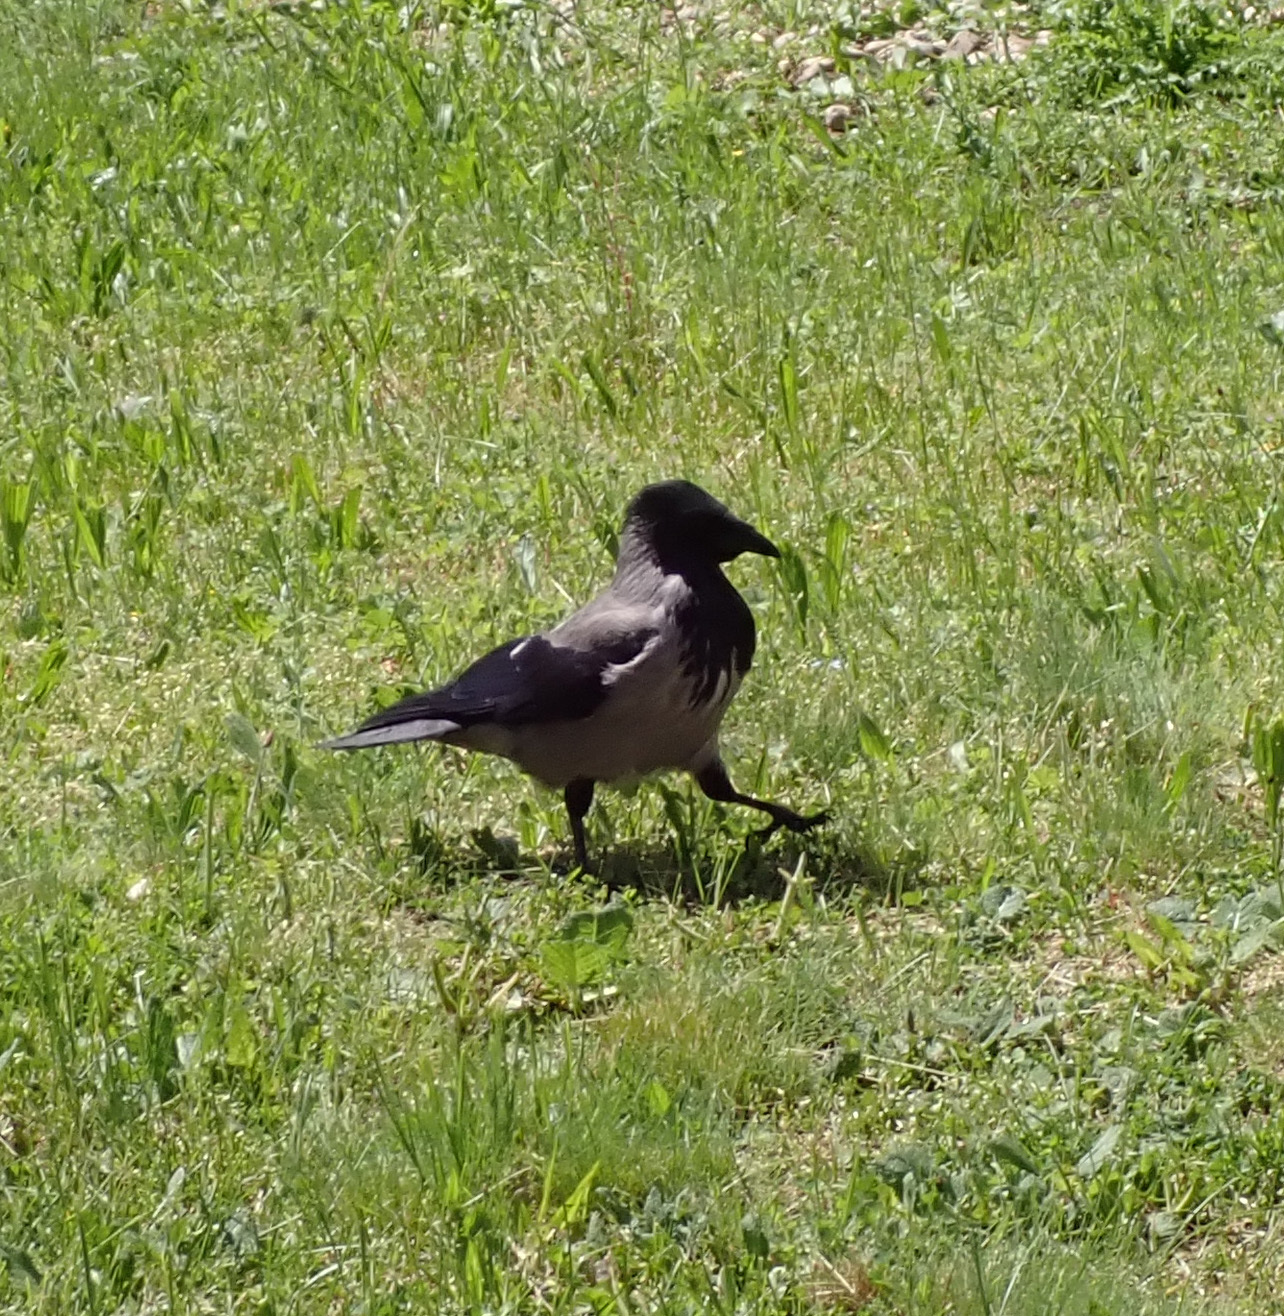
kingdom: Animalia
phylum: Chordata
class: Aves
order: Passeriformes
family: Corvidae
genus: Corvus
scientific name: Corvus cornix
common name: Hooded crow
